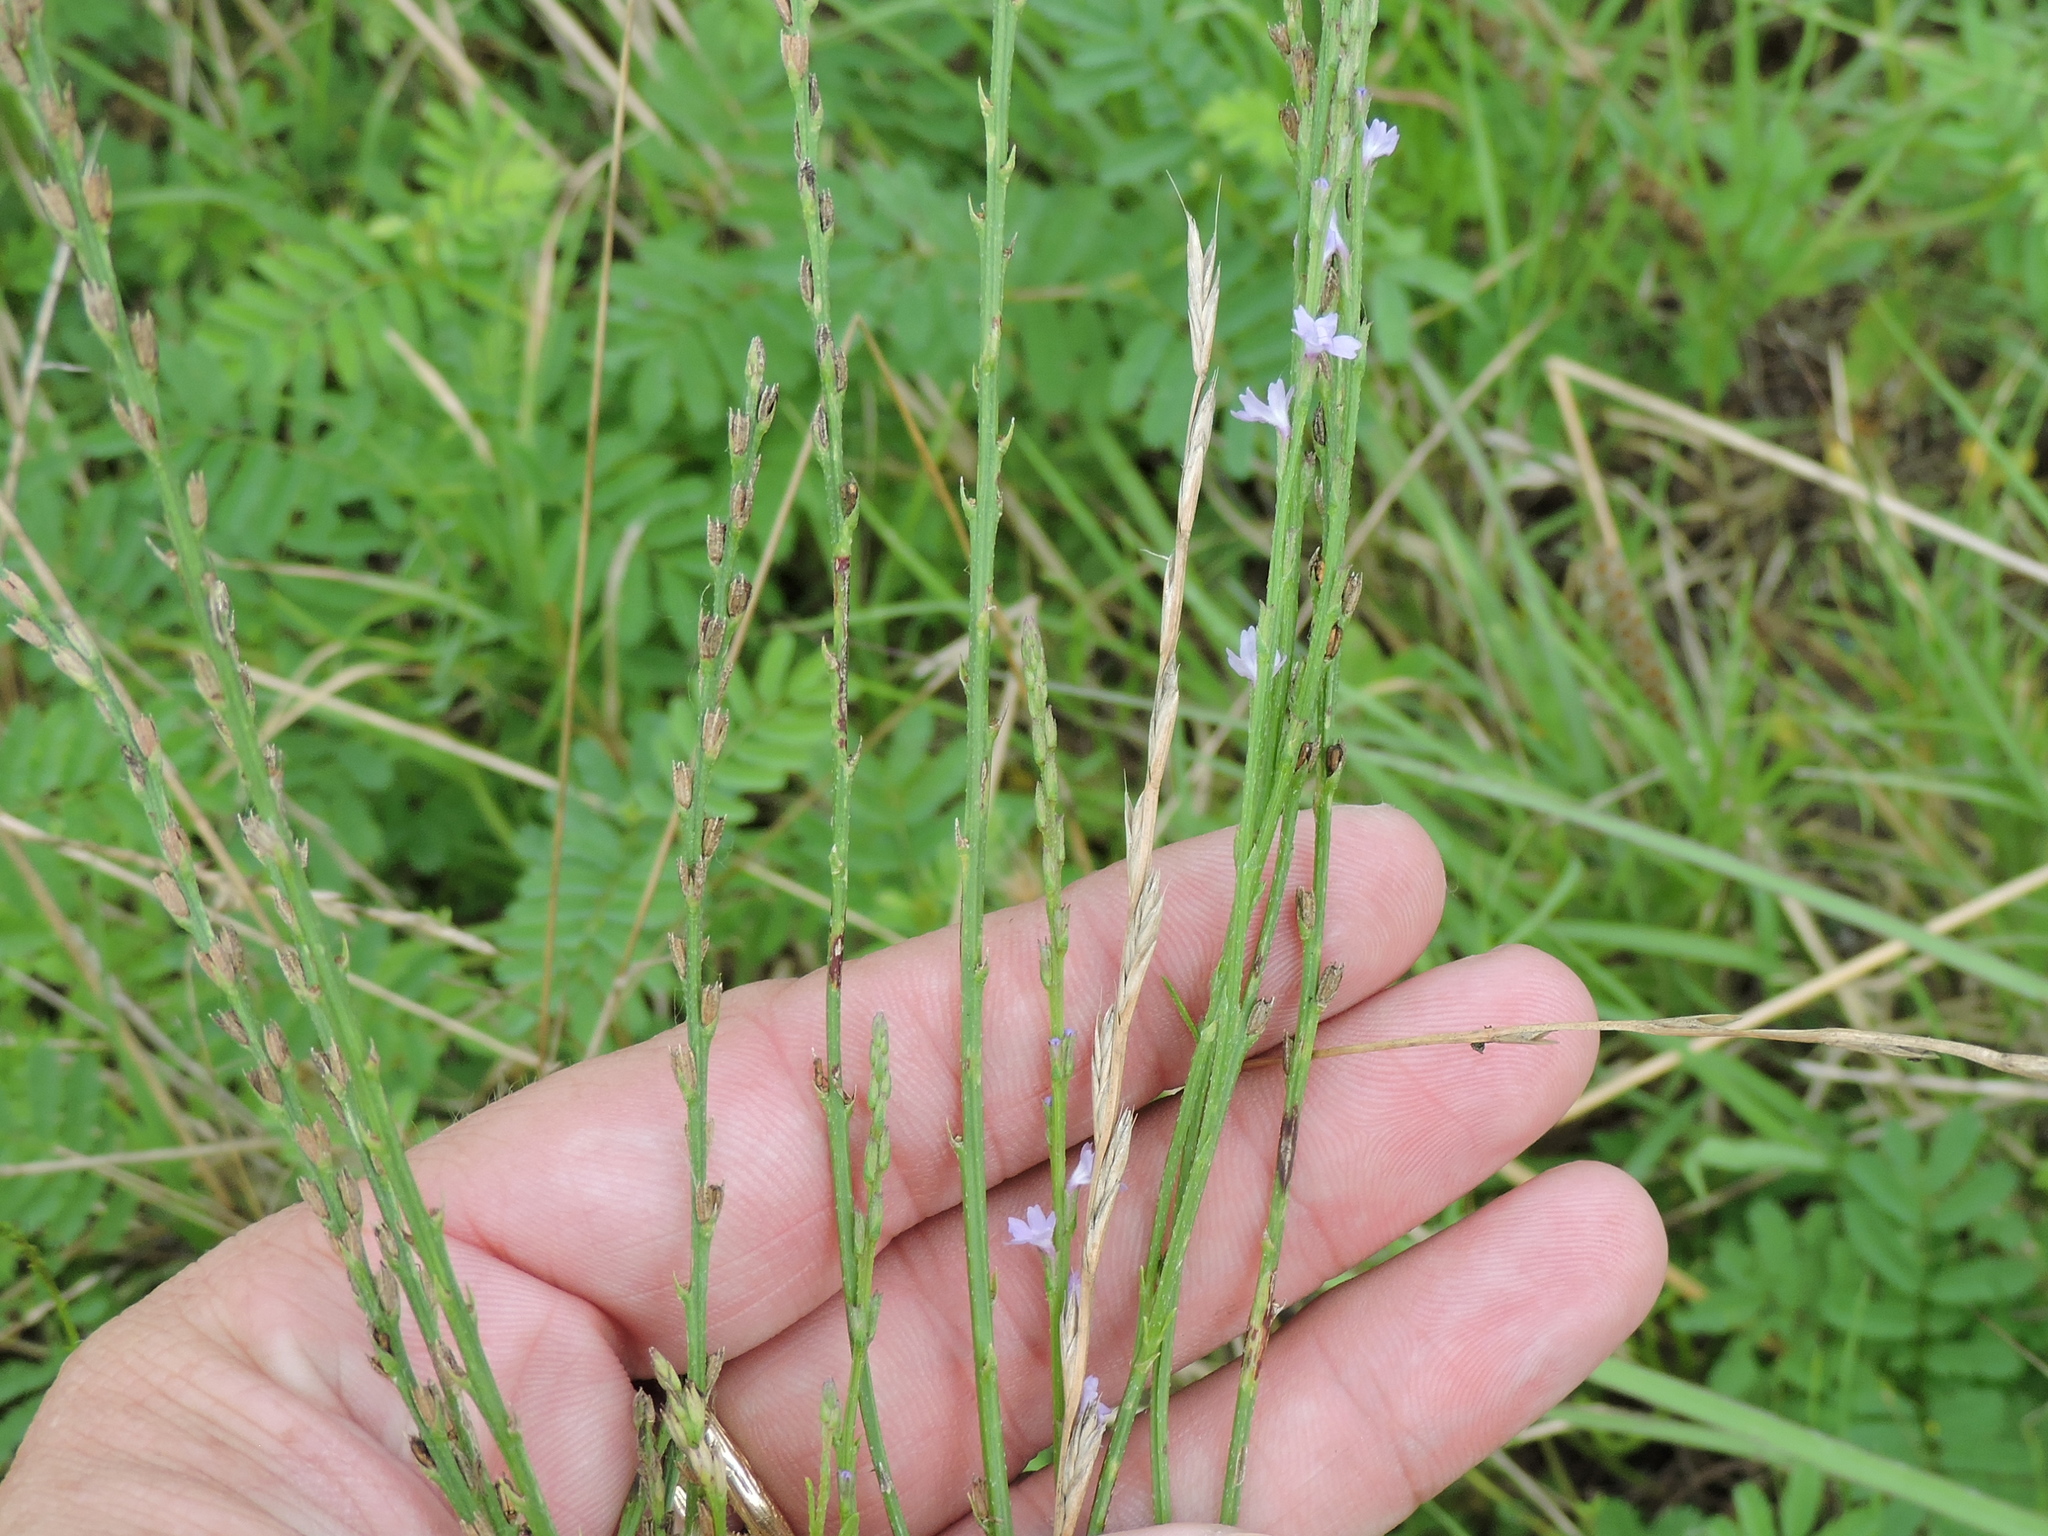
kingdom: Plantae
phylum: Tracheophyta
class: Magnoliopsida
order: Lamiales
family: Verbenaceae
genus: Verbena
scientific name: Verbena halei
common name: Texas vervain
